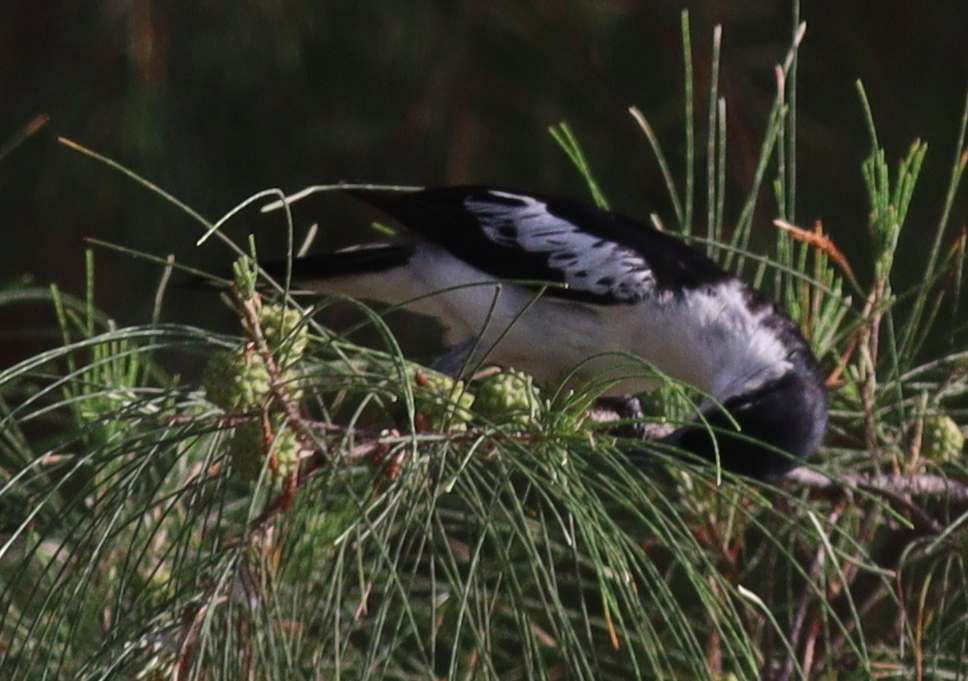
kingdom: Animalia
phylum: Chordata
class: Aves
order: Passeriformes
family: Campephagidae
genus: Lalage
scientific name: Lalage sueurii
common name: White-shouldered triller
